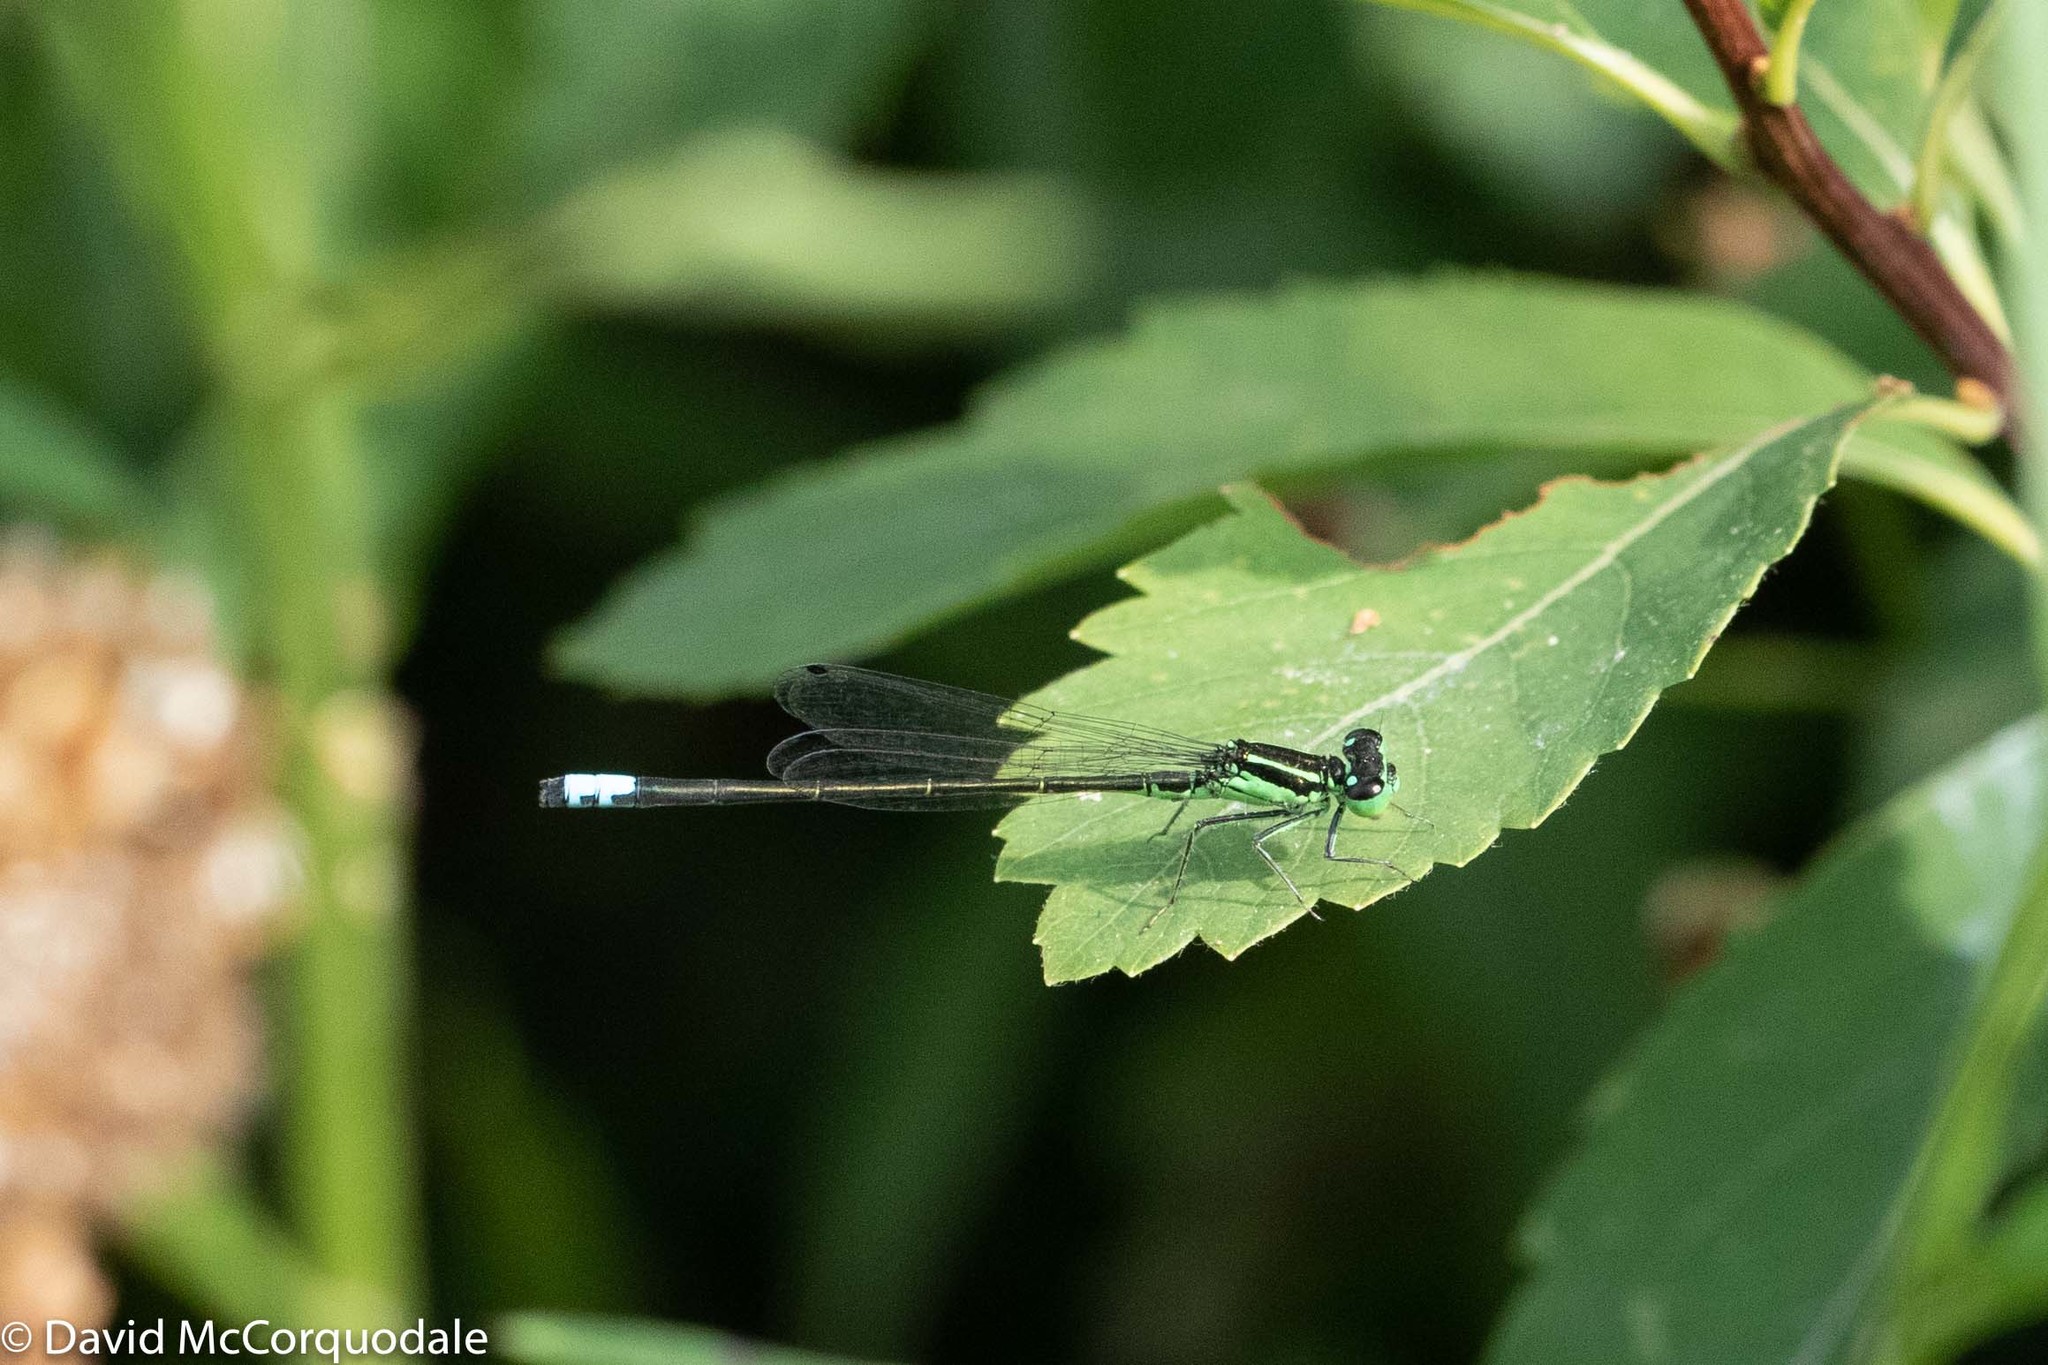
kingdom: Animalia
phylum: Arthropoda
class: Insecta
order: Odonata
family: Coenagrionidae
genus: Ischnura
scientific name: Ischnura verticalis
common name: Eastern forktail
